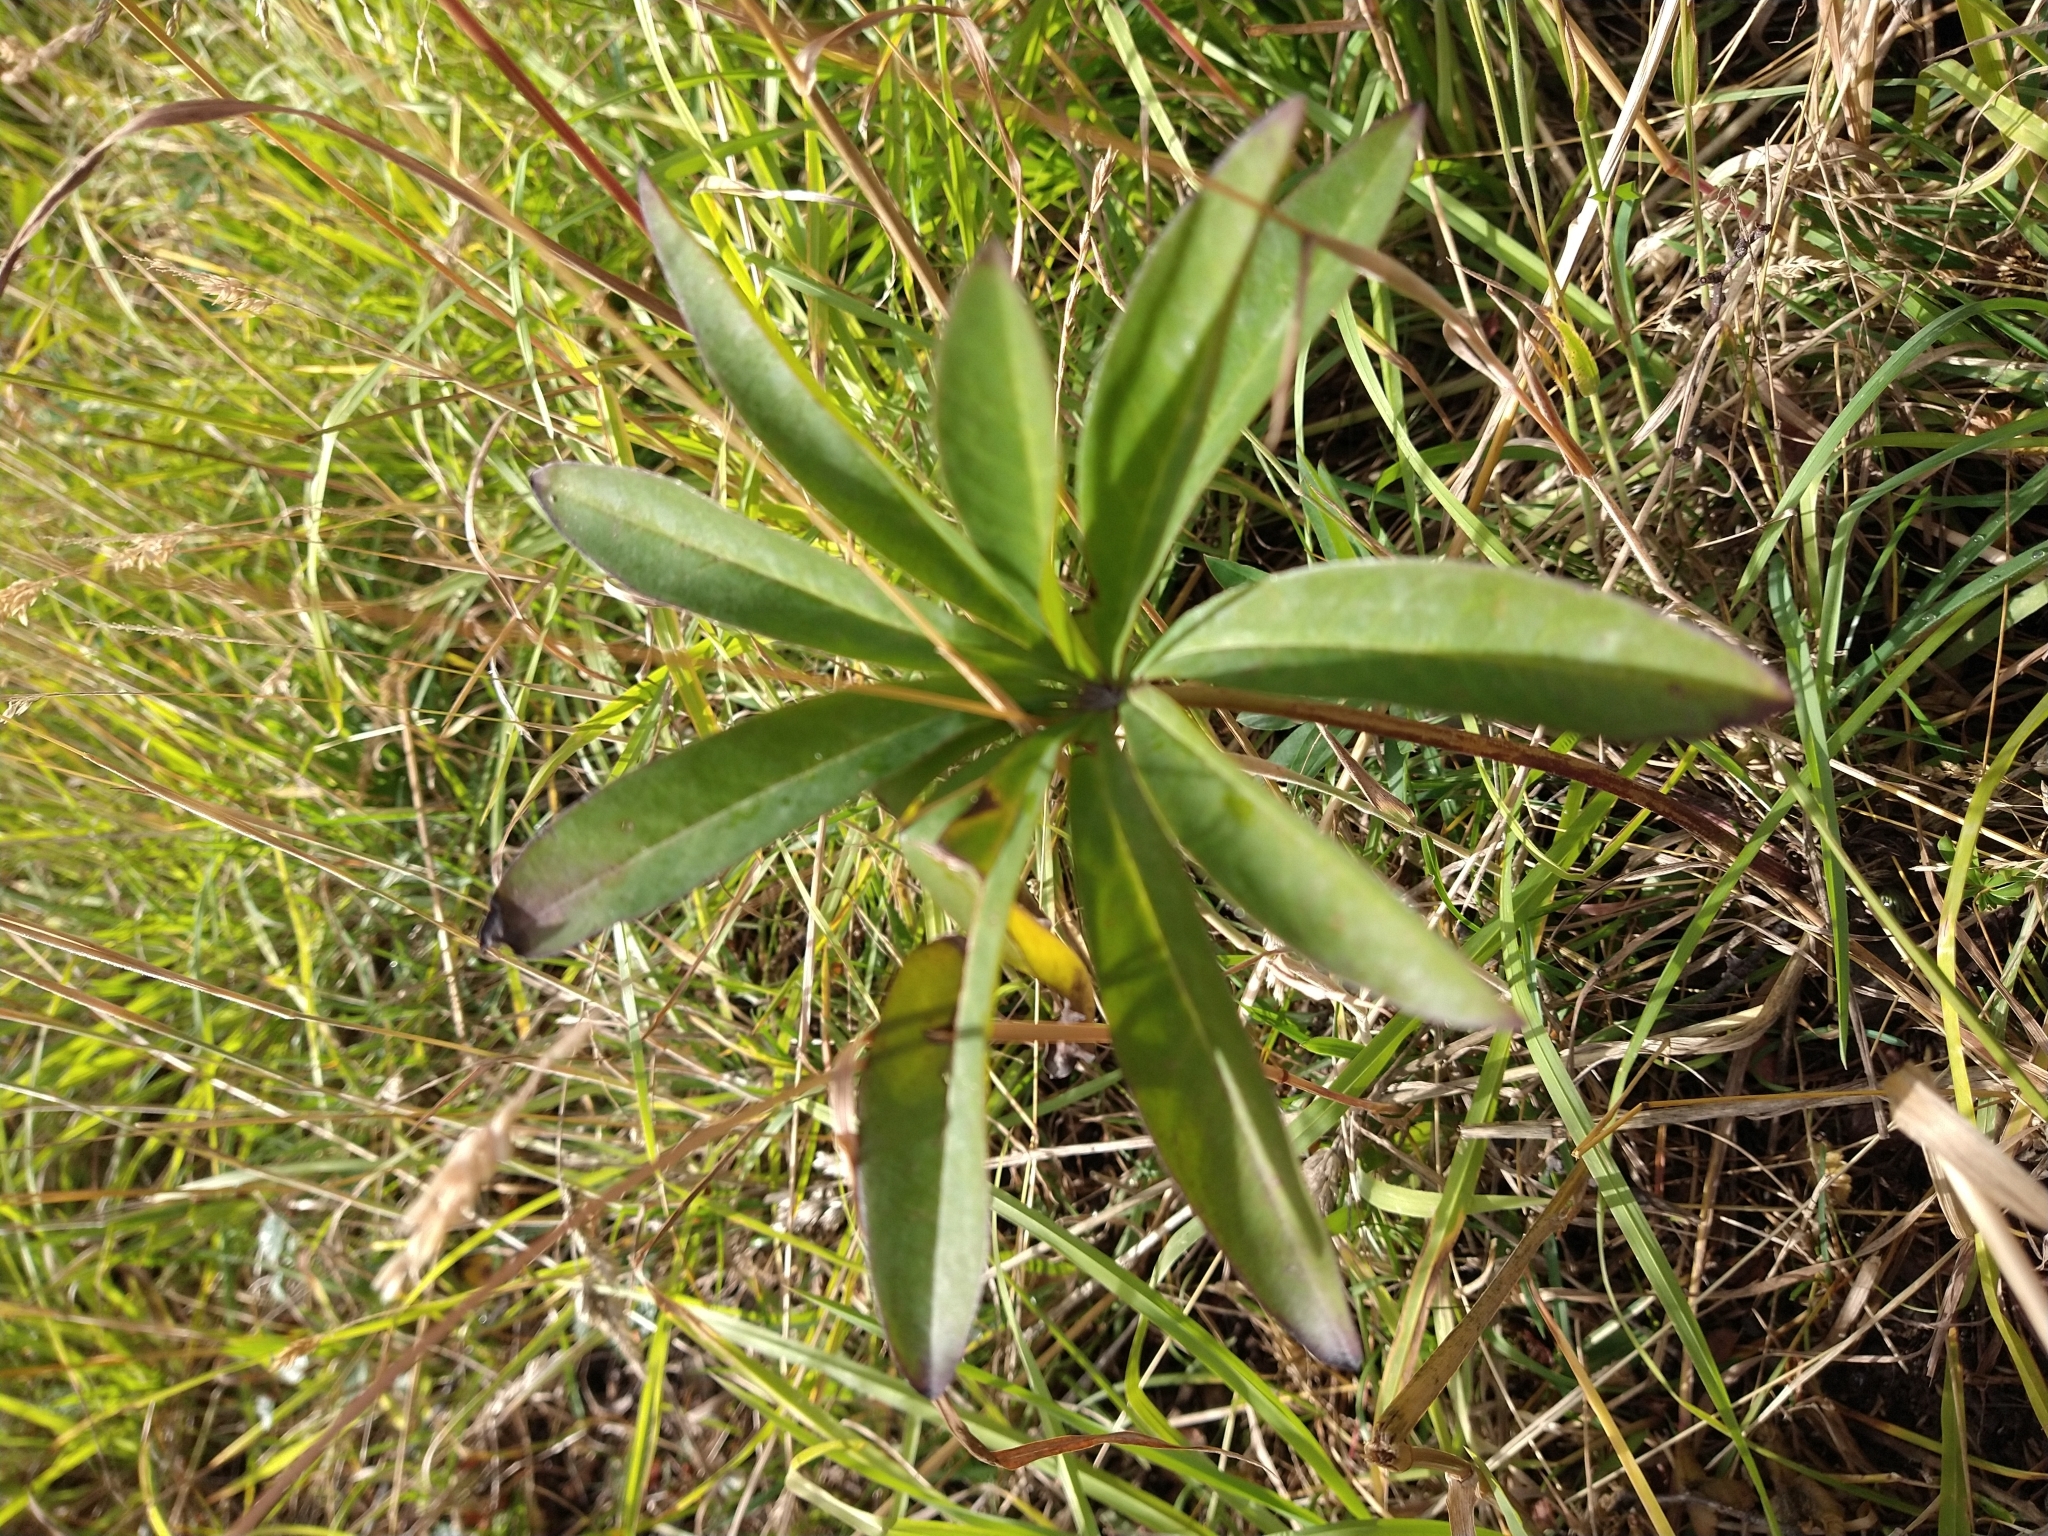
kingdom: Plantae
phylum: Tracheophyta
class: Magnoliopsida
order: Fabales
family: Fabaceae
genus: Lupinus
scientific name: Lupinus polyphyllus
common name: Garden lupin
